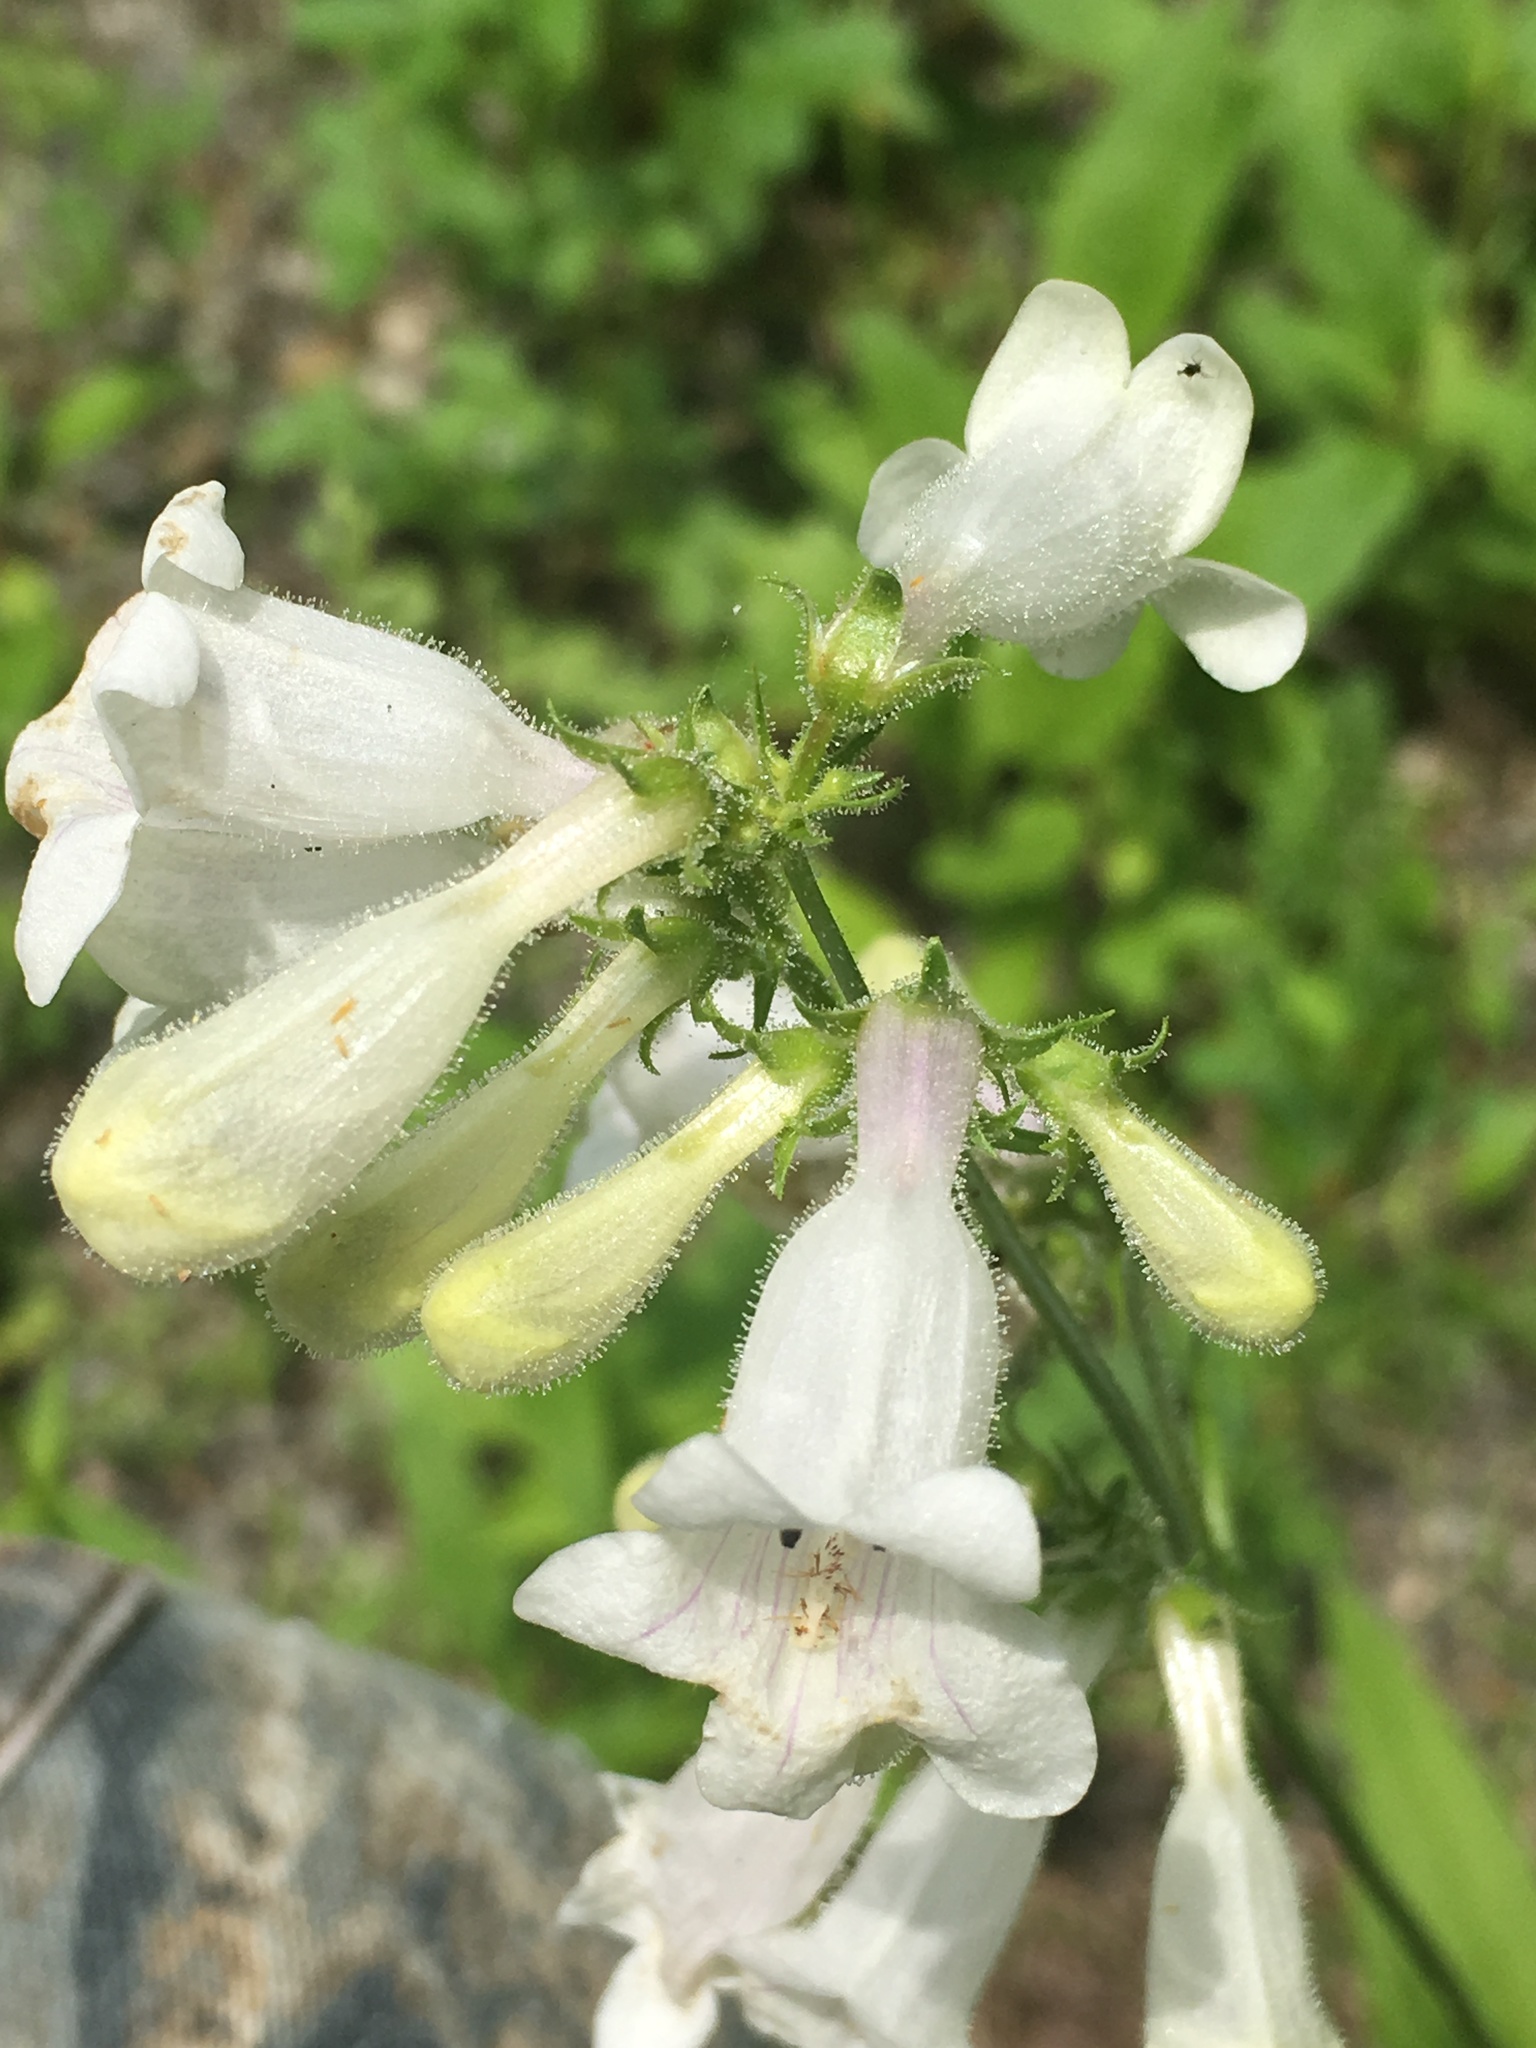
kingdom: Plantae
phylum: Tracheophyta
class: Magnoliopsida
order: Lamiales
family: Plantaginaceae
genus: Penstemon
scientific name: Penstemon digitalis
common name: Foxglove beardtongue
